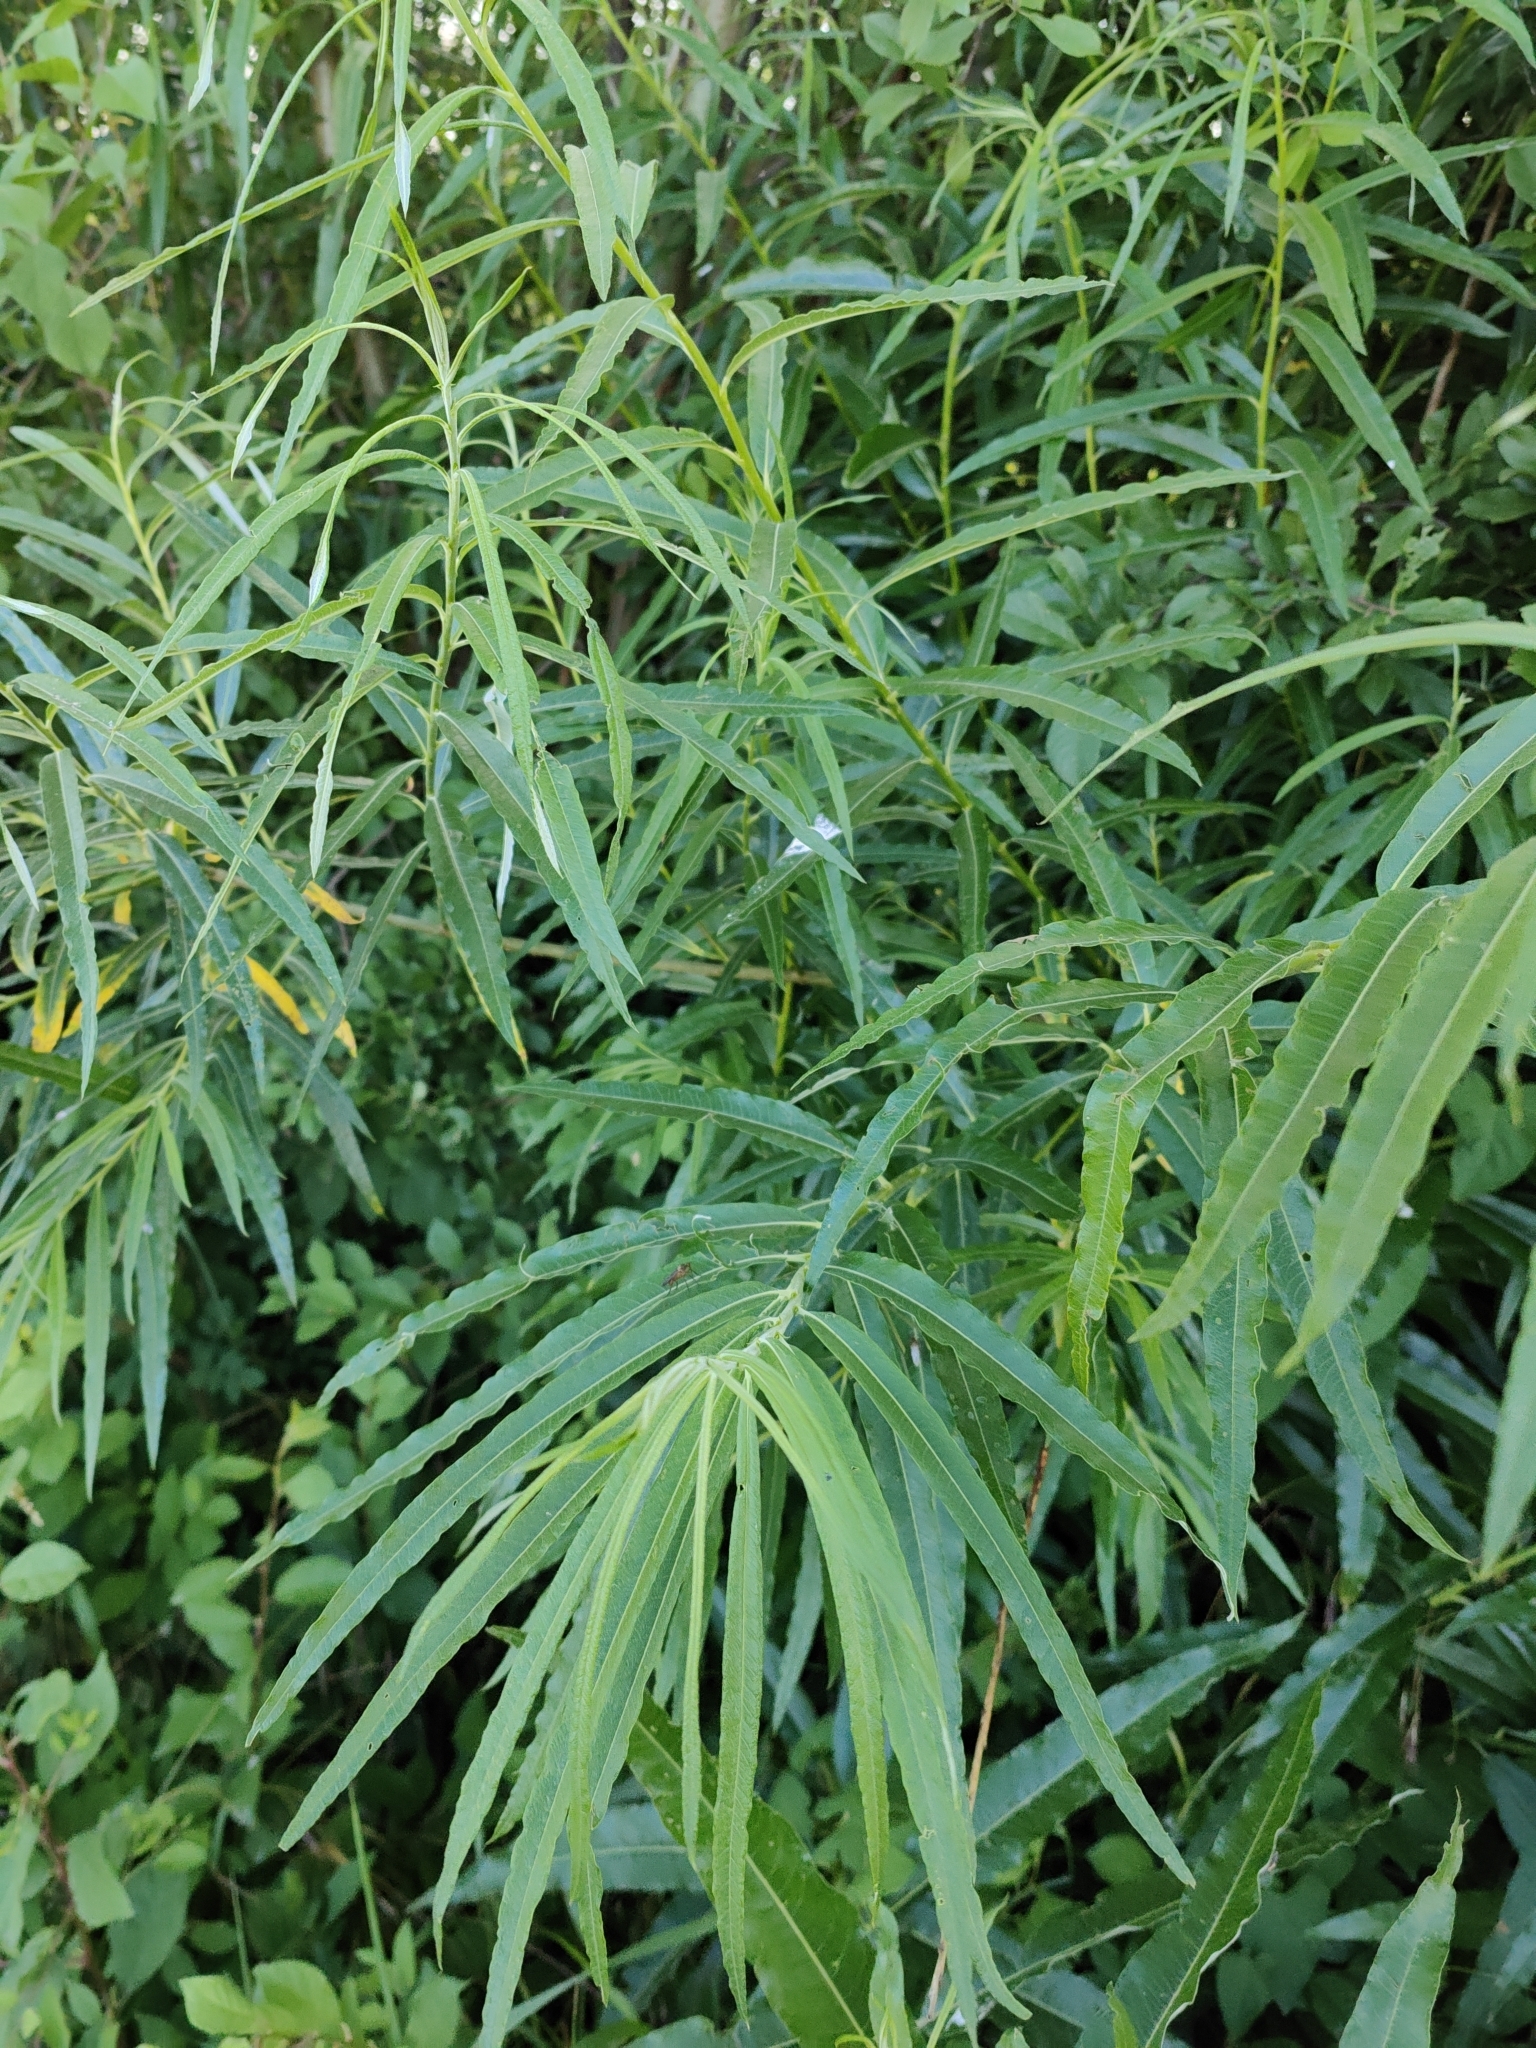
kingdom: Plantae
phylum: Tracheophyta
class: Magnoliopsida
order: Malpighiales
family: Salicaceae
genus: Salix
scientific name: Salix viminalis
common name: Osier
